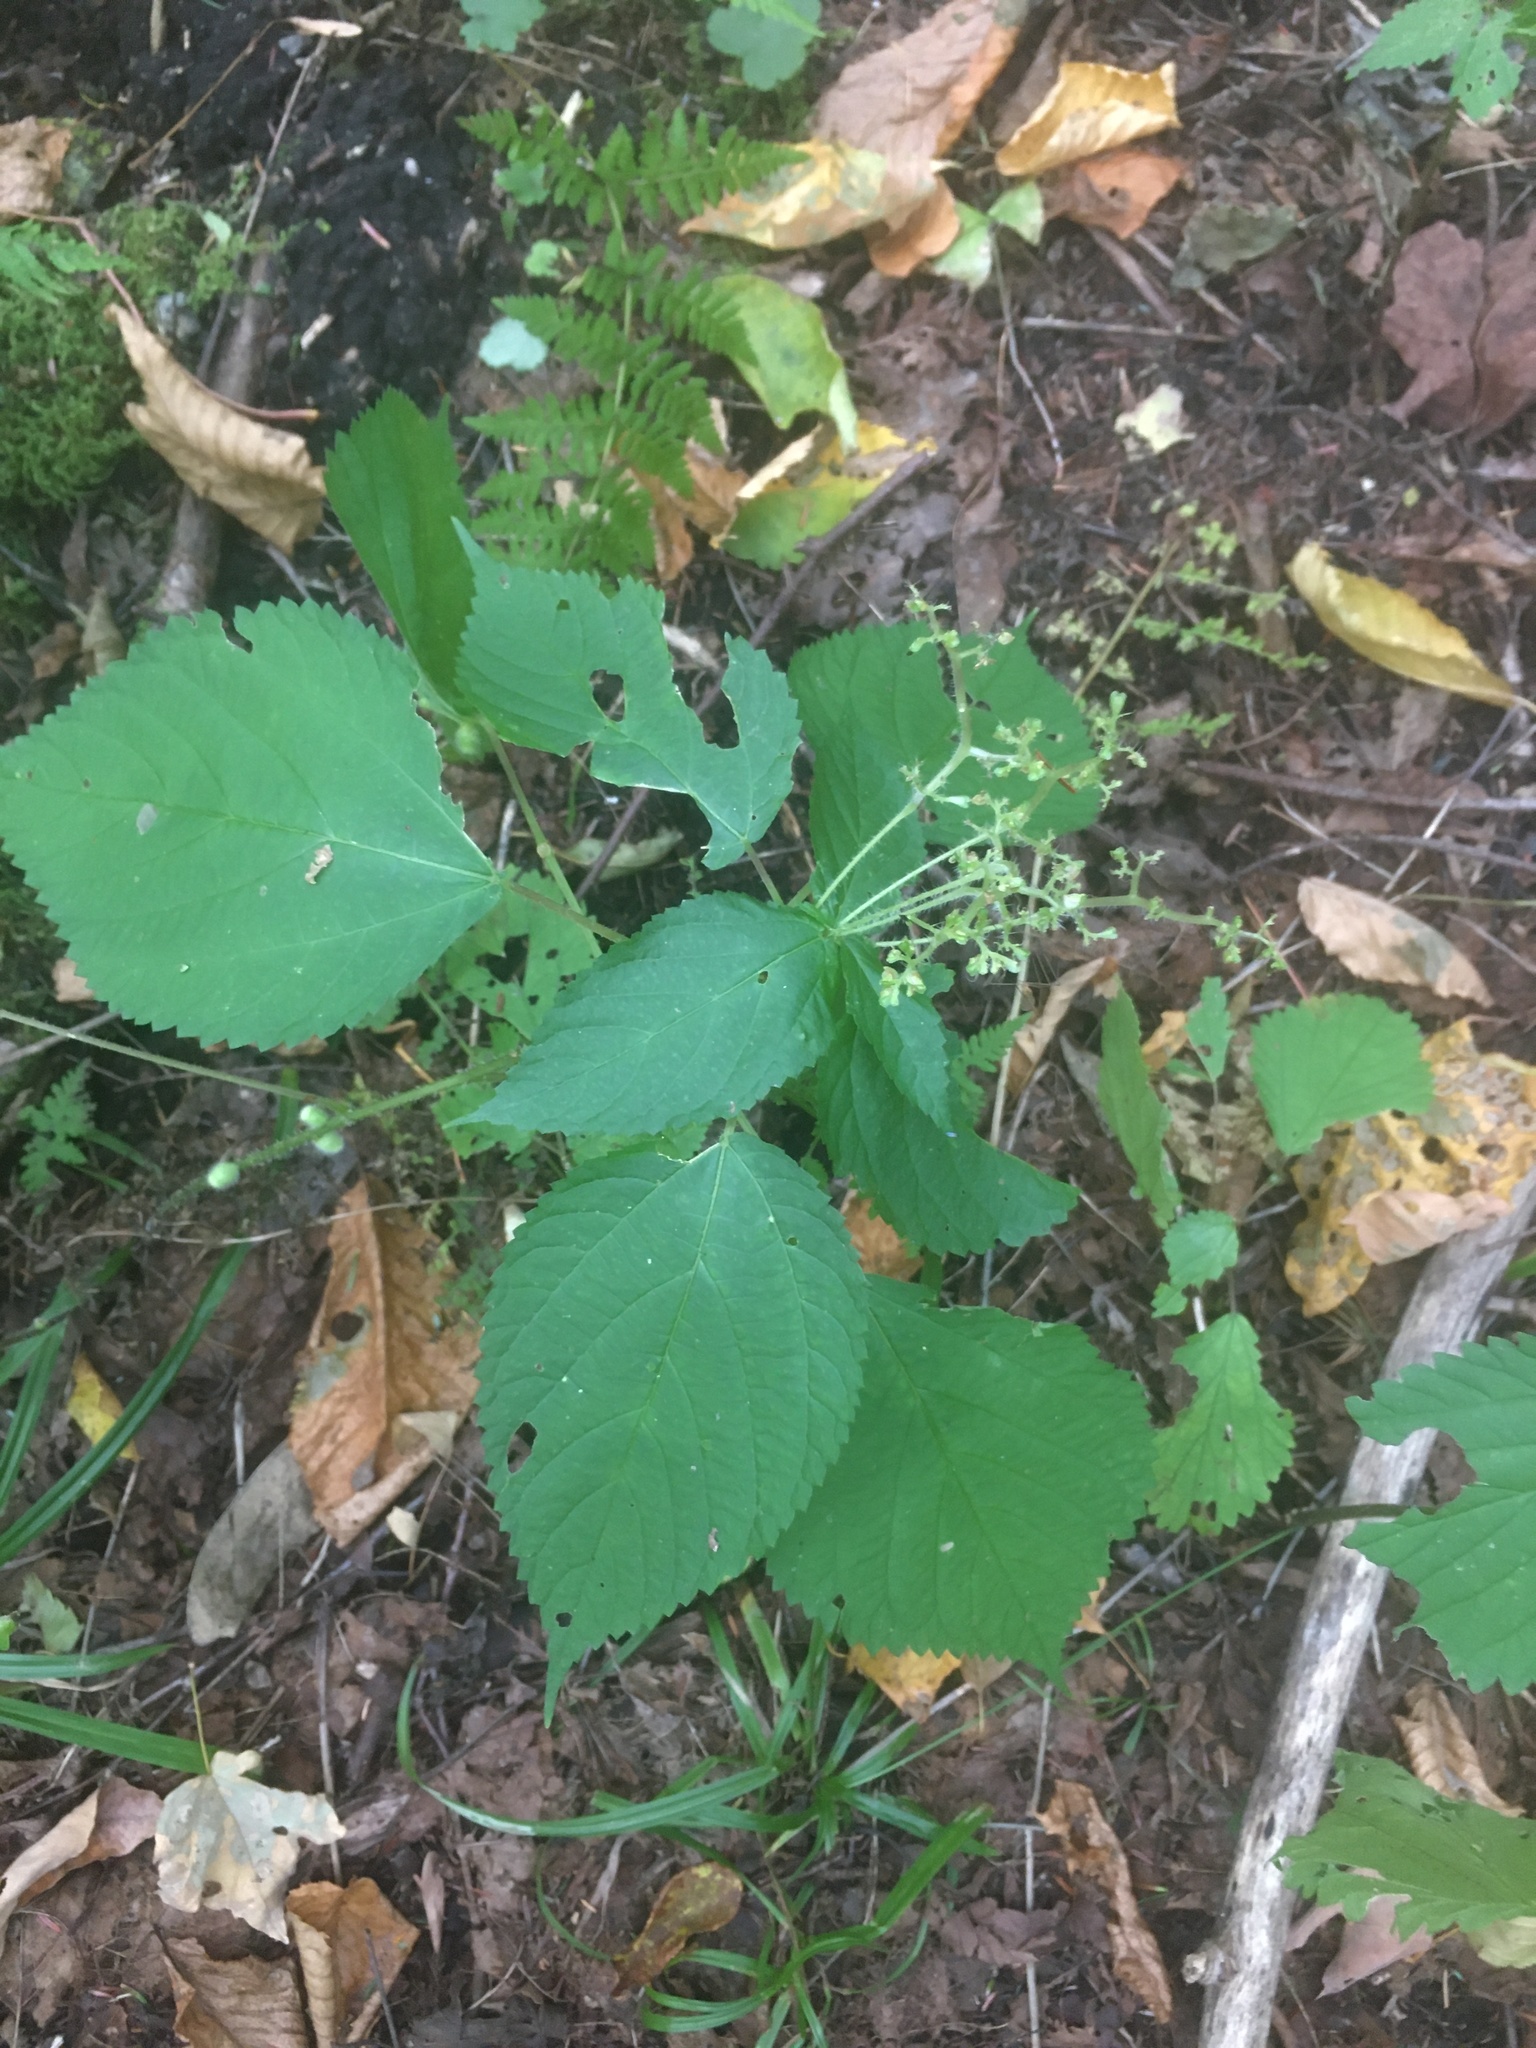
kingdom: Plantae
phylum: Tracheophyta
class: Magnoliopsida
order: Rosales
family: Urticaceae
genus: Laportea
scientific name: Laportea canadensis
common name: Canada nettle
